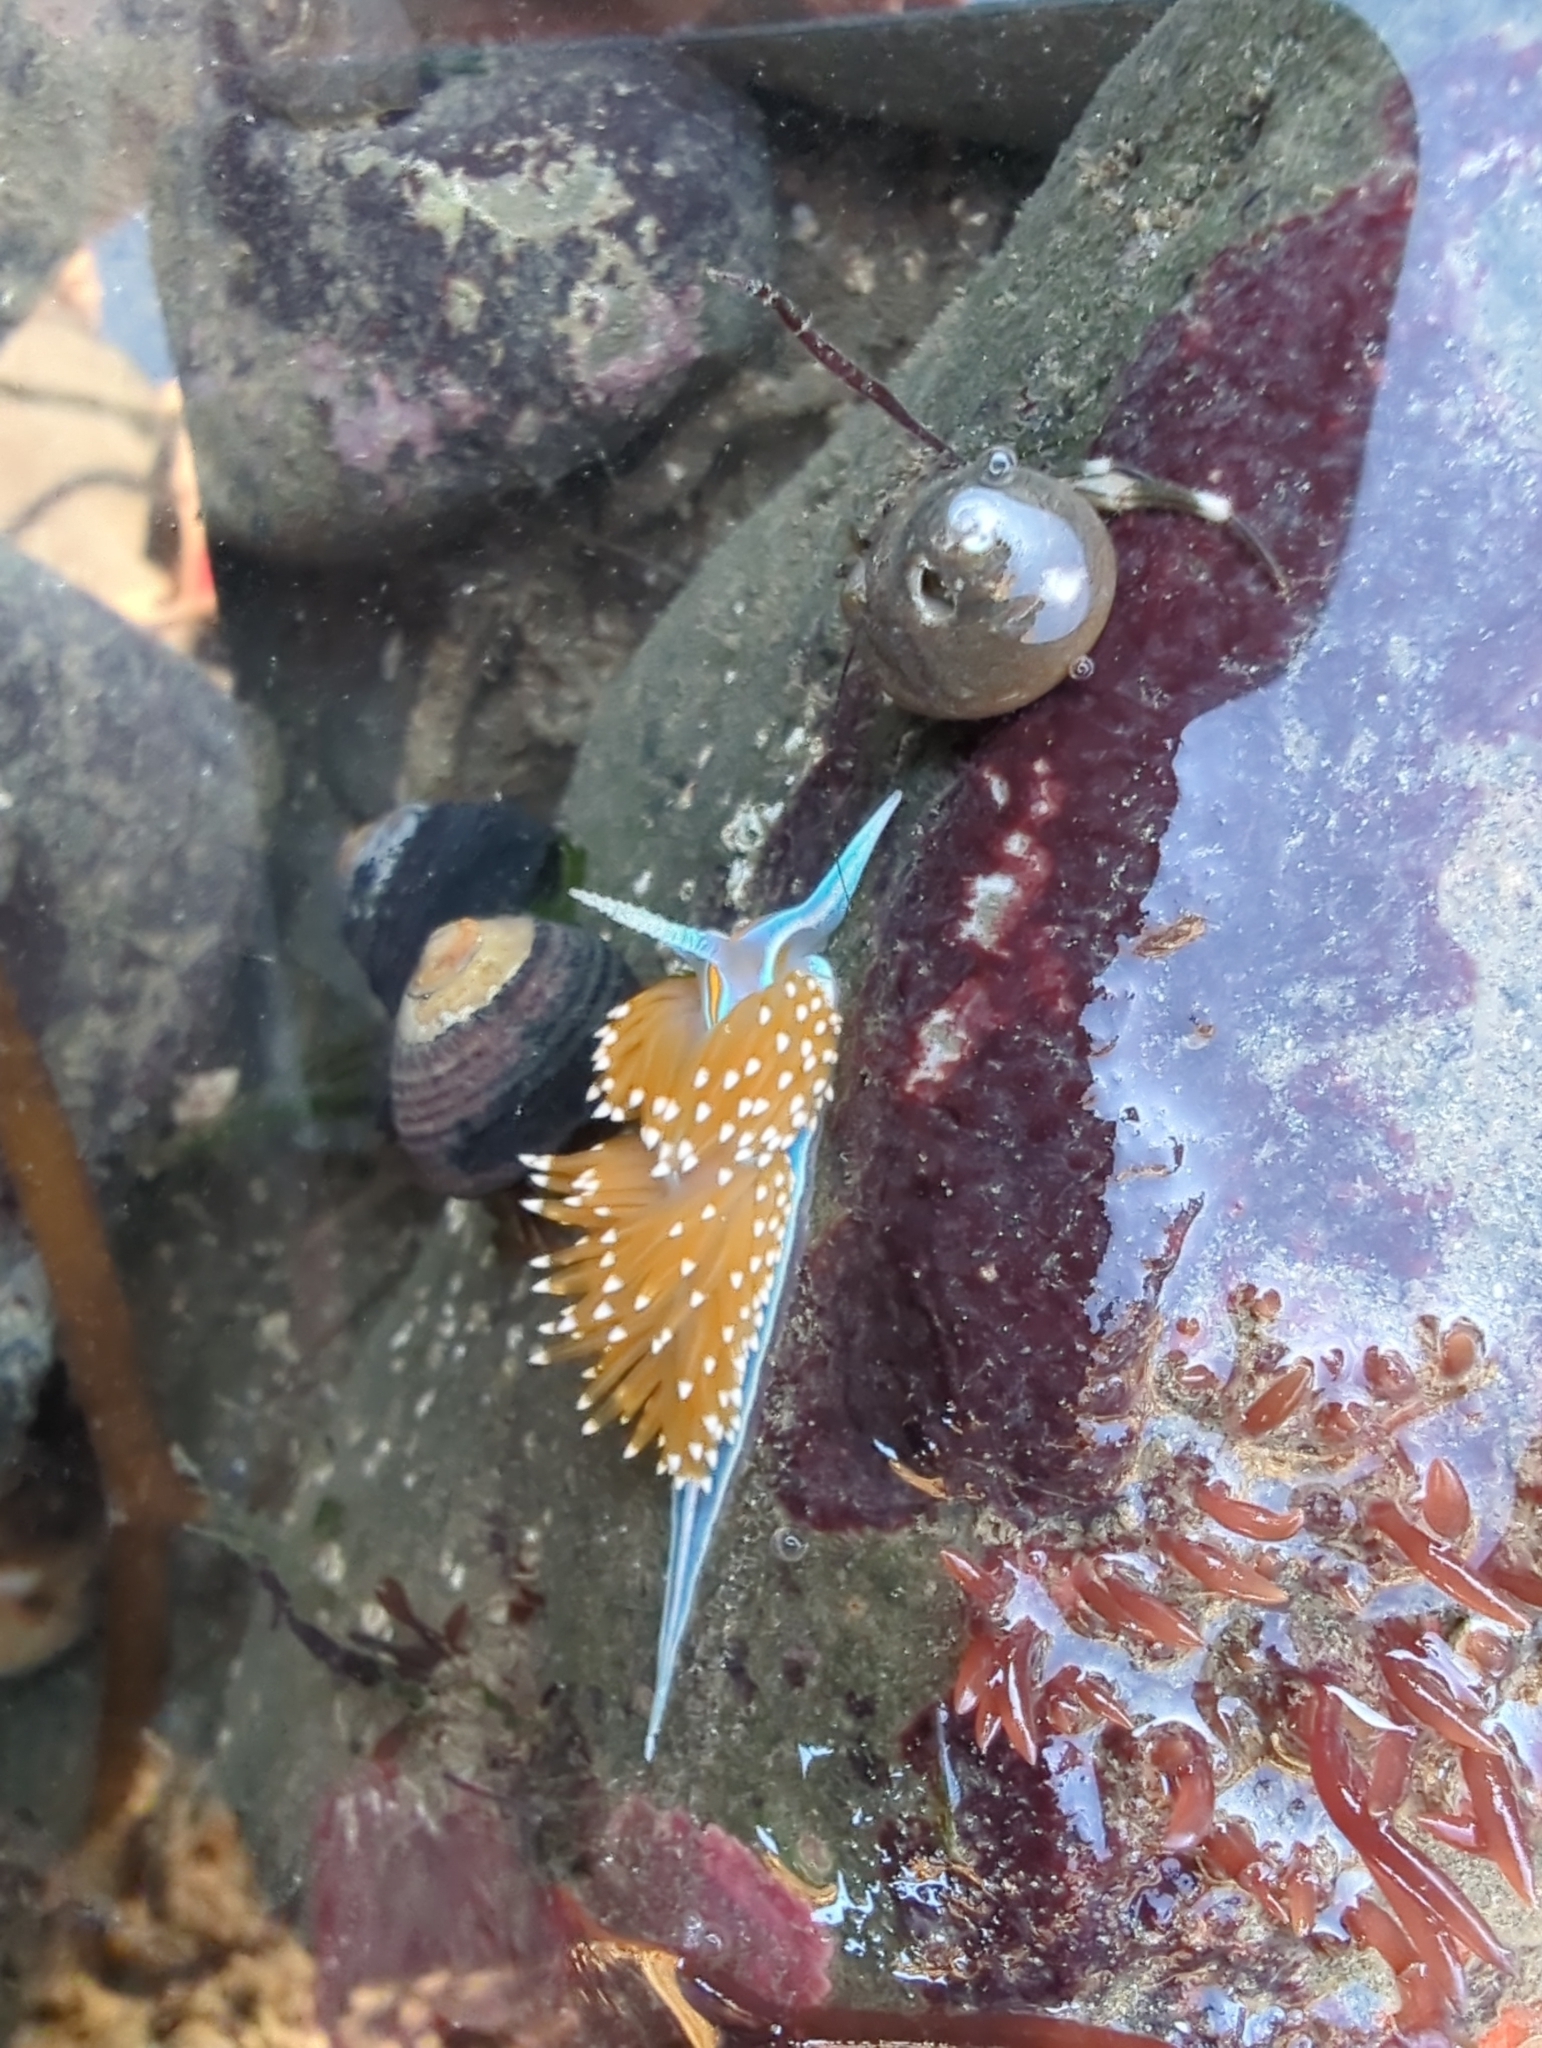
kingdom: Animalia
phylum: Mollusca
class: Gastropoda
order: Nudibranchia
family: Myrrhinidae
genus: Hermissenda
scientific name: Hermissenda opalescens
